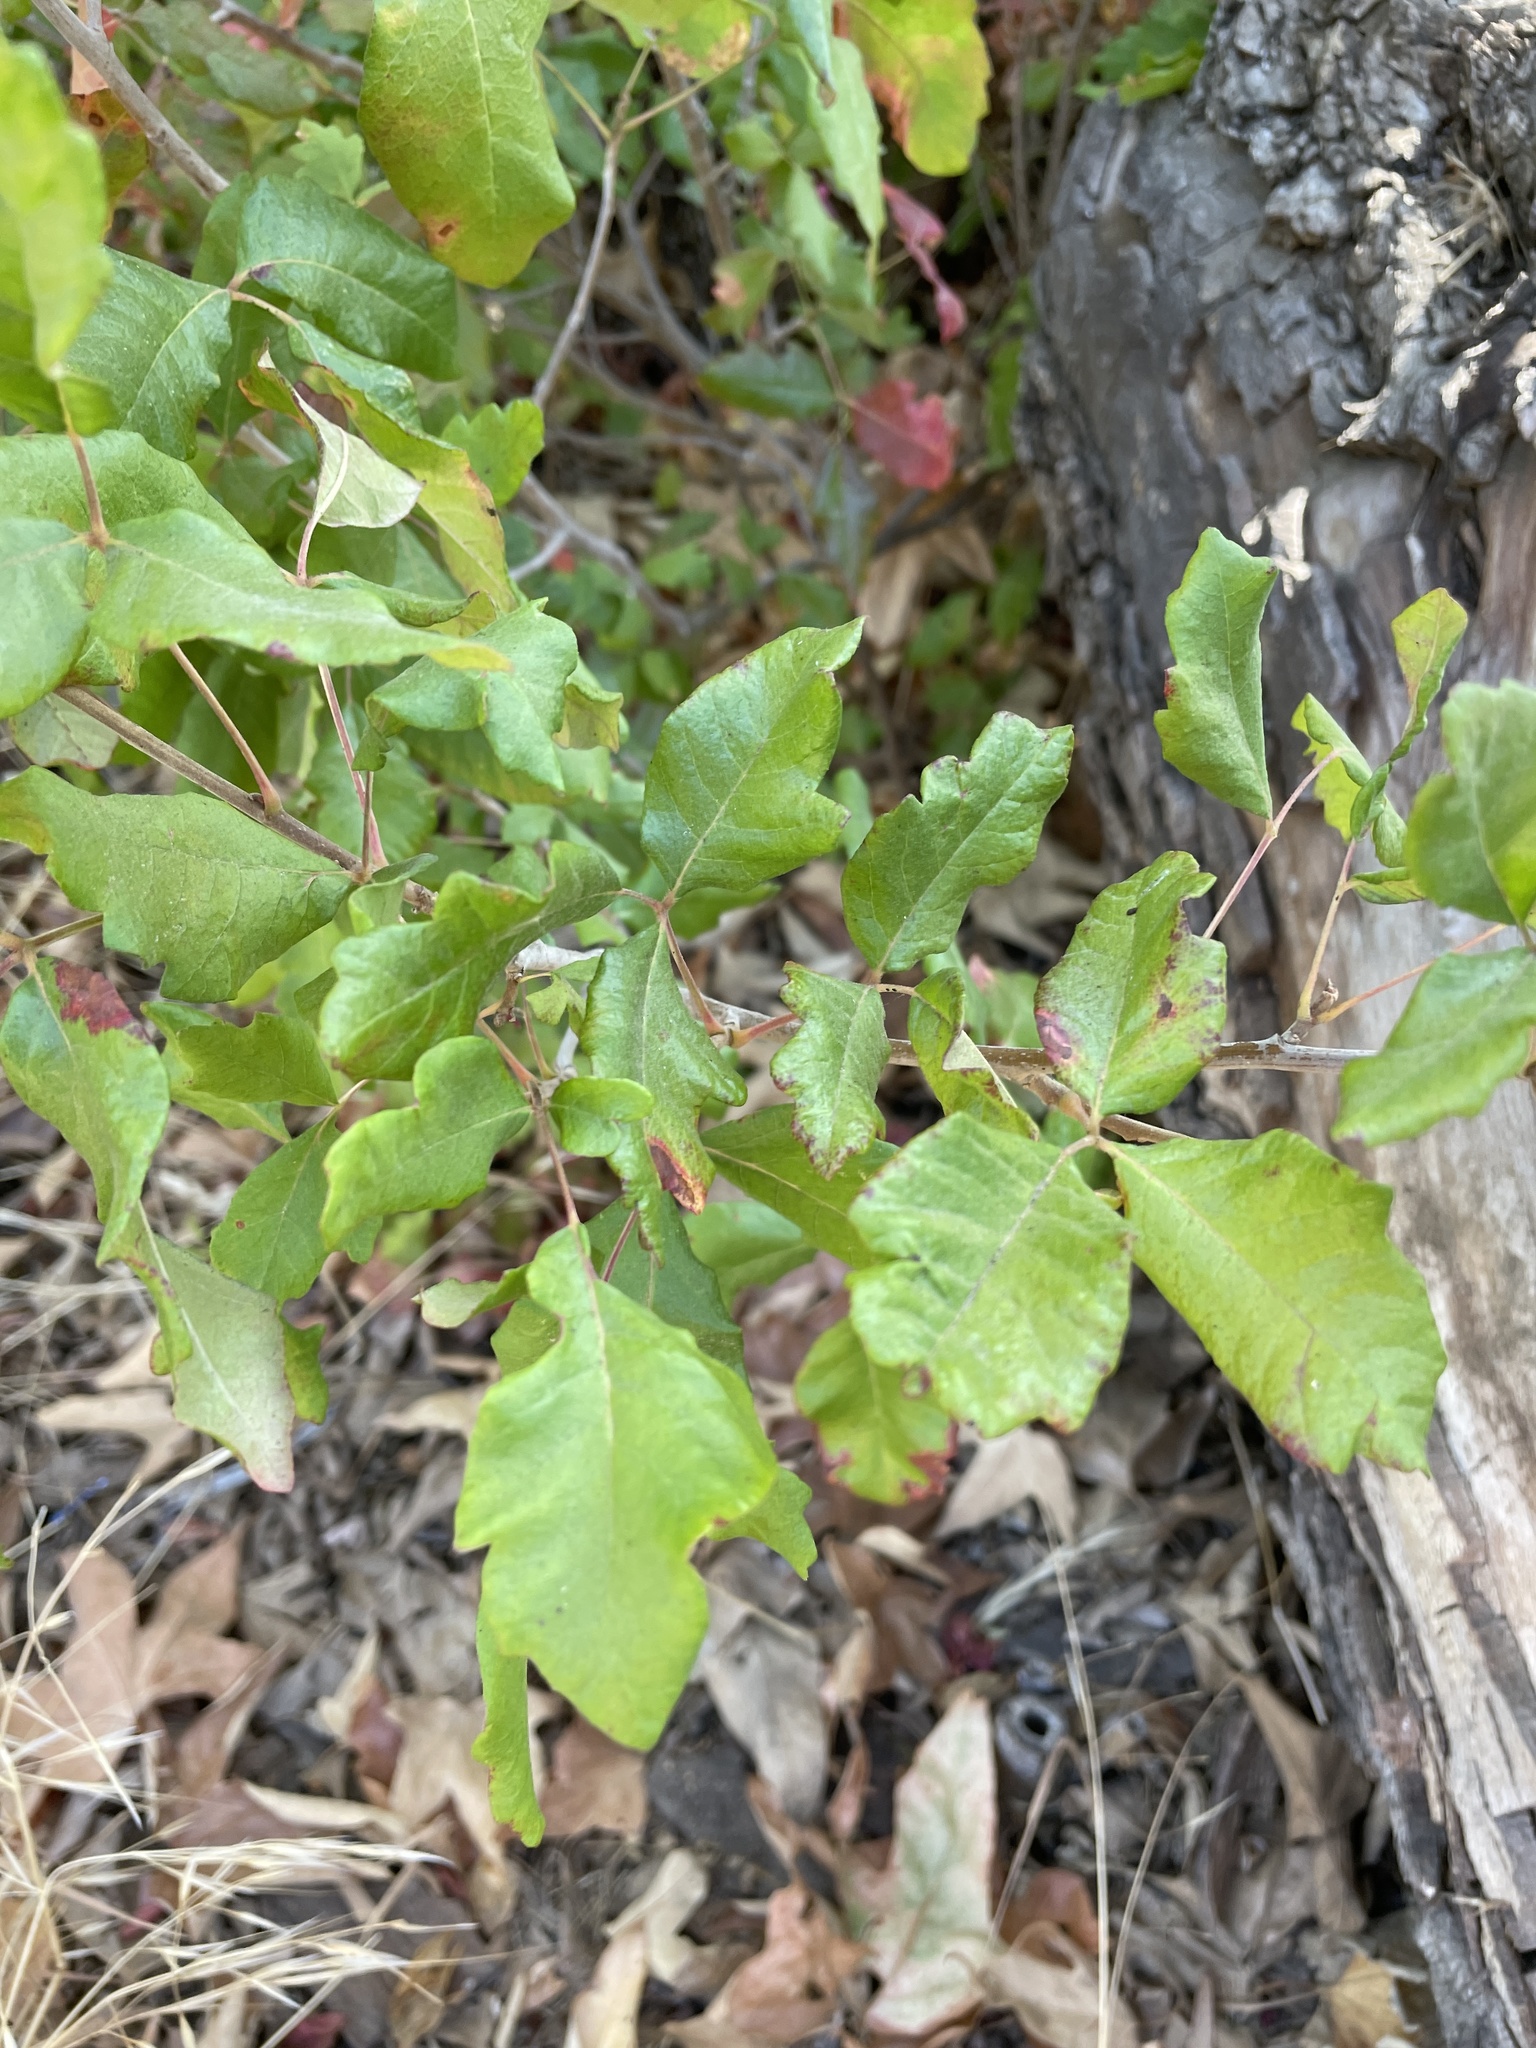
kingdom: Plantae
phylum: Tracheophyta
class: Magnoliopsida
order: Sapindales
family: Anacardiaceae
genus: Toxicodendron
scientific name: Toxicodendron diversilobum
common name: Pacific poison-oak
